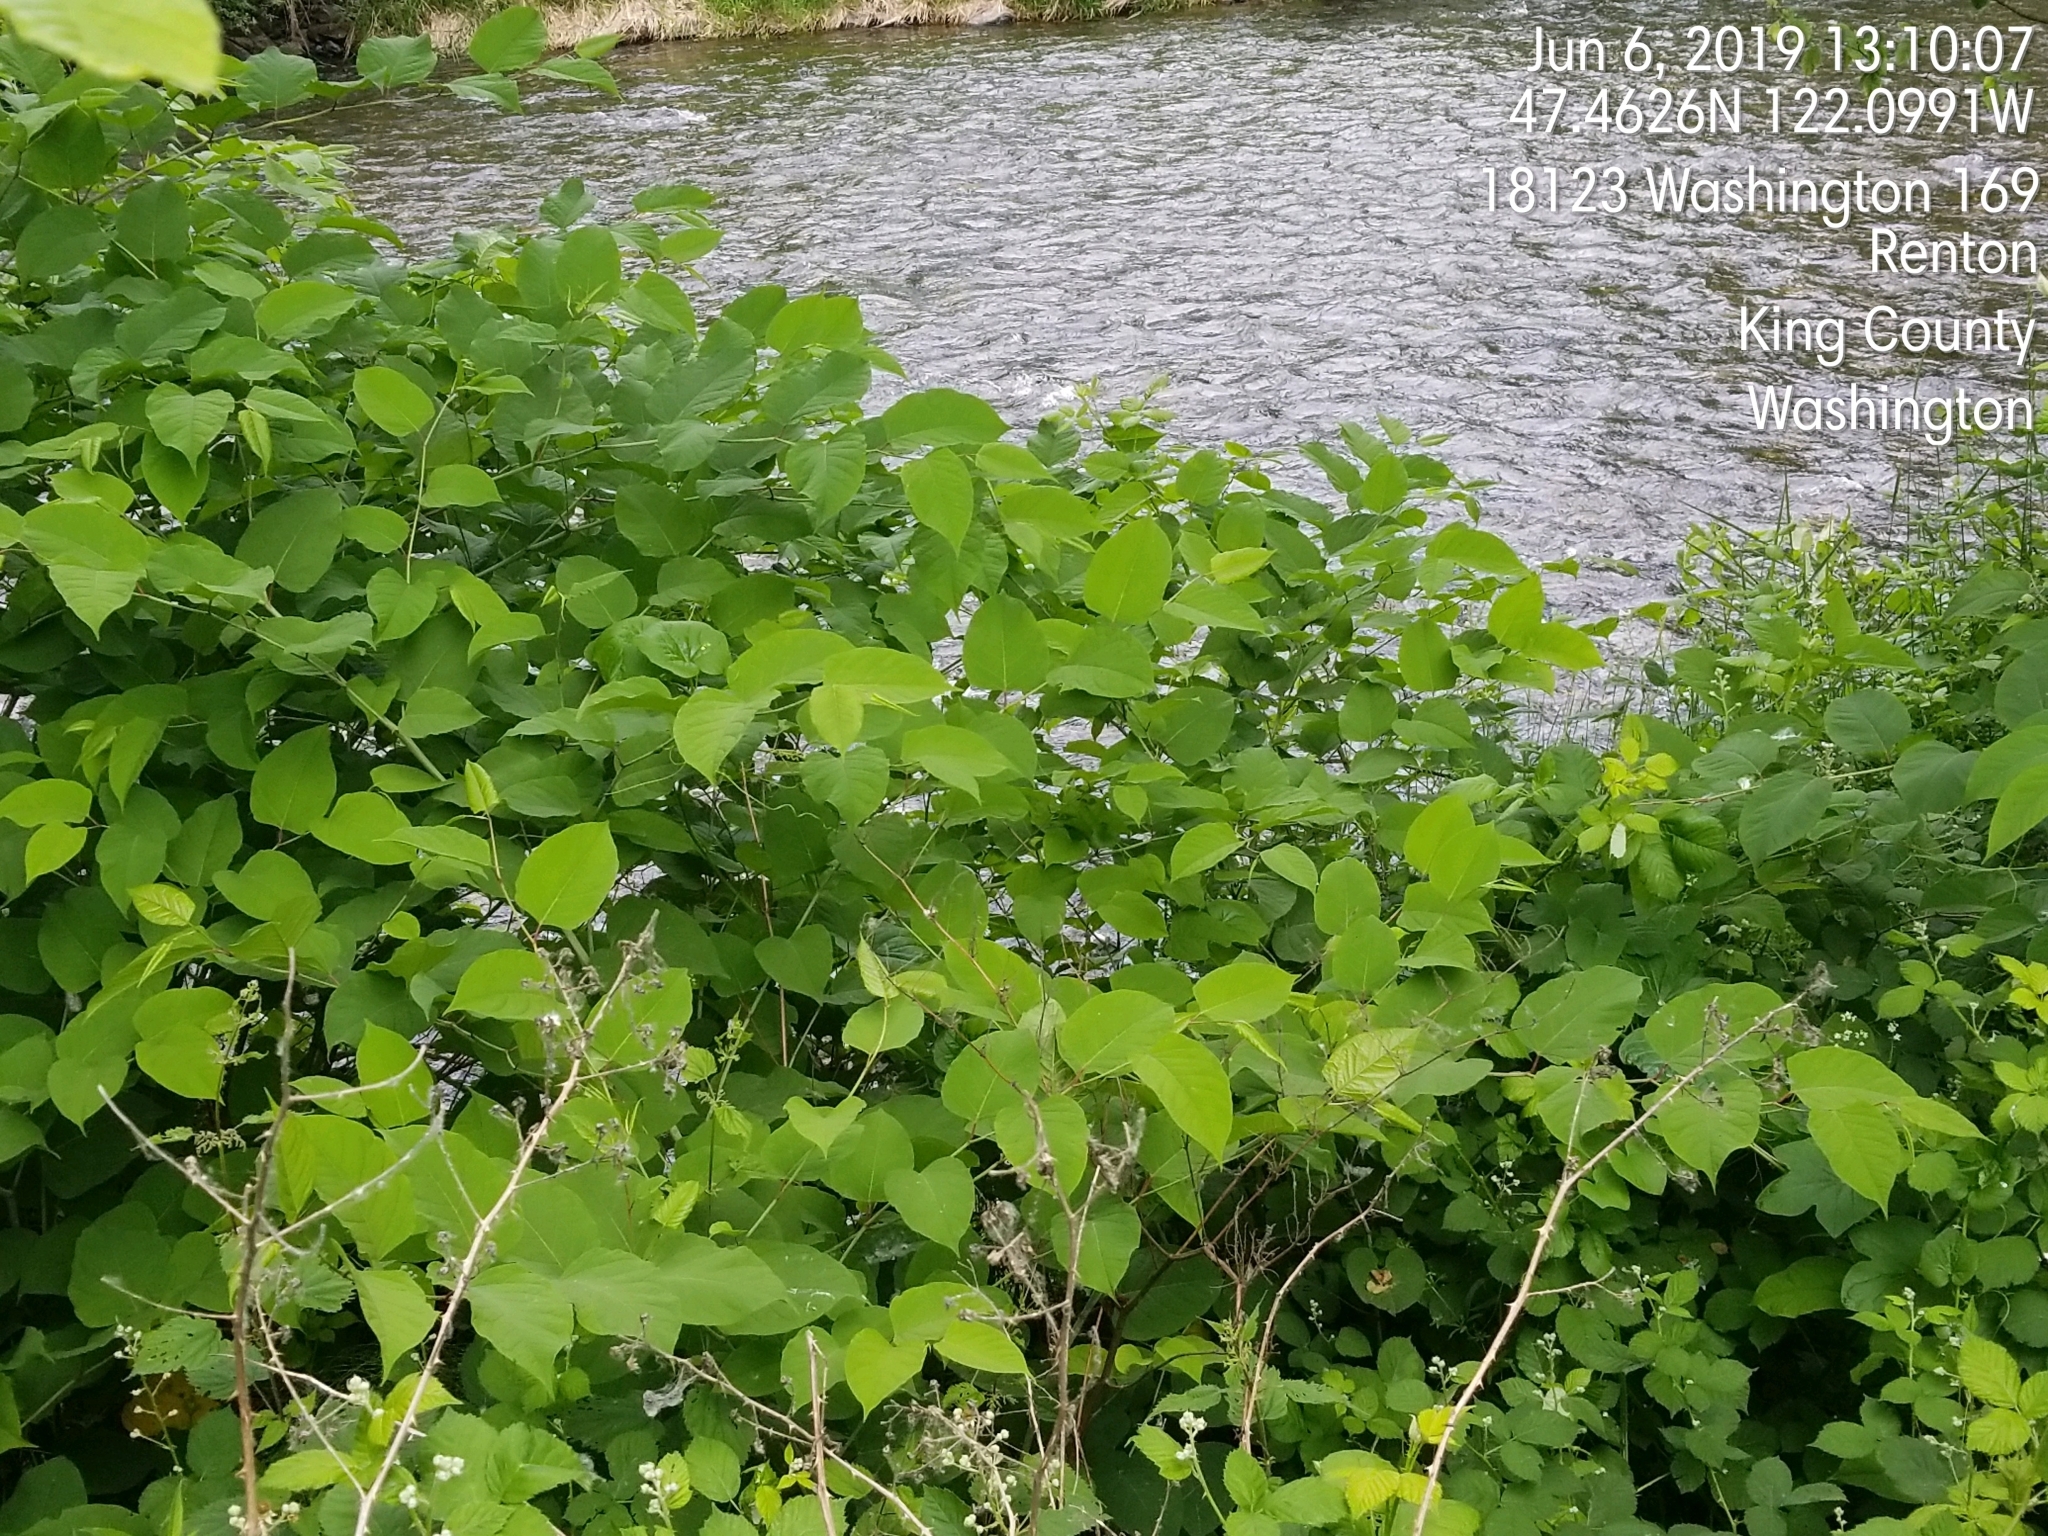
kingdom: Plantae
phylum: Tracheophyta
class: Magnoliopsida
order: Caryophyllales
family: Polygonaceae
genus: Reynoutria
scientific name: Reynoutria bohemica
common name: Bohemian knotweed
